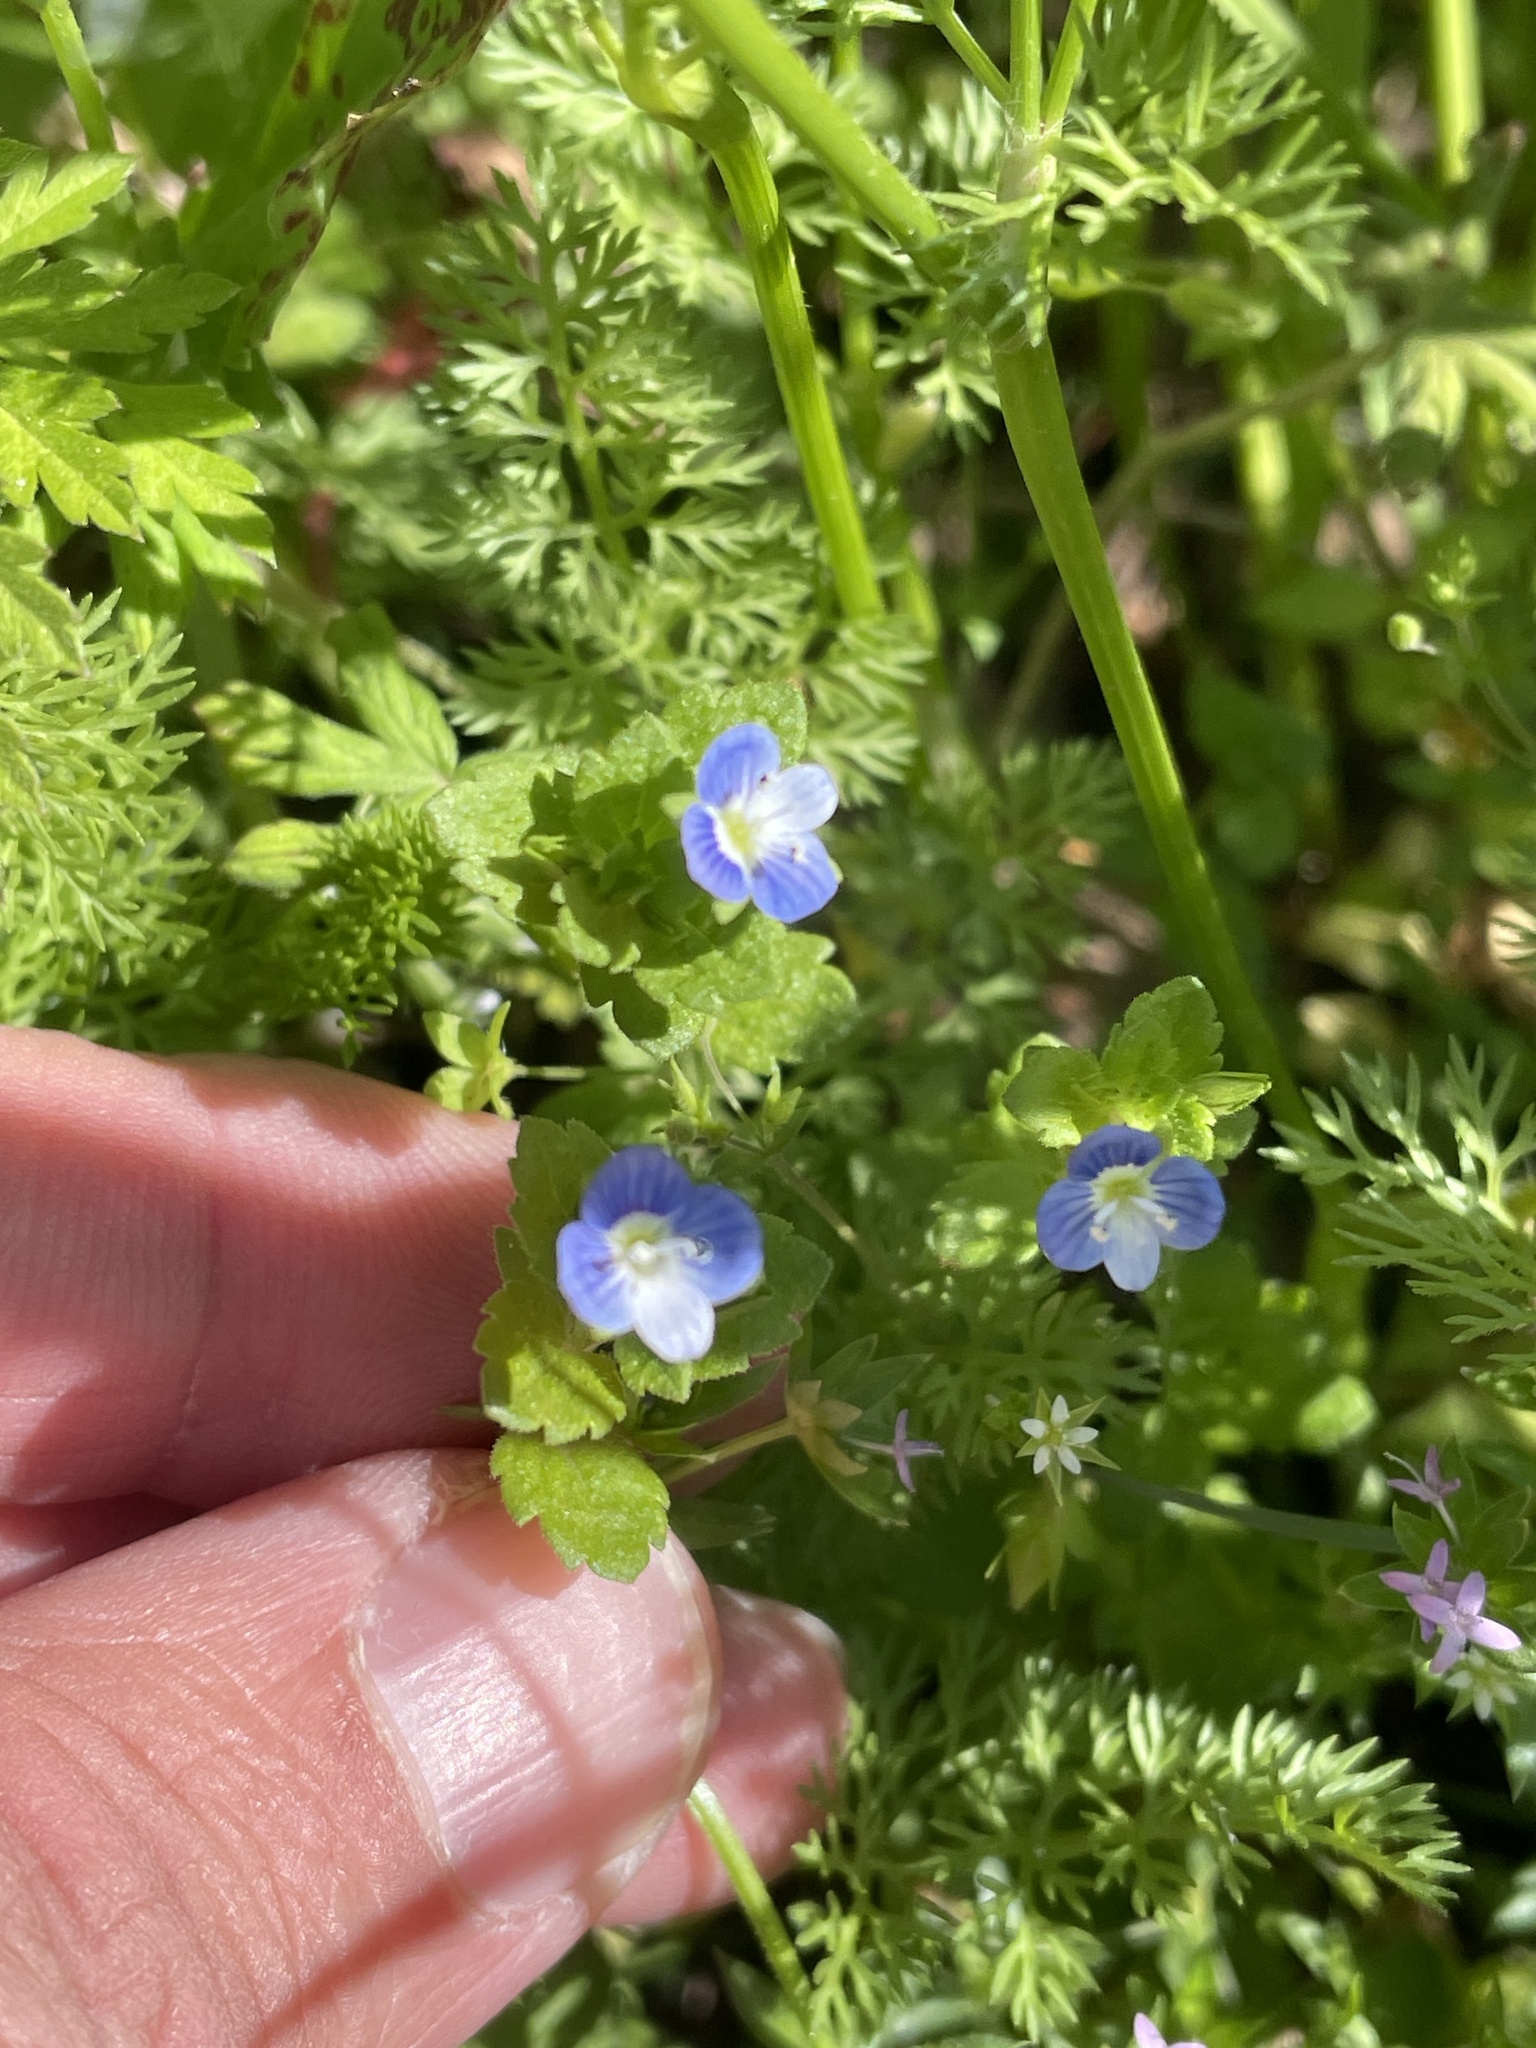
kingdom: Plantae
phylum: Tracheophyta
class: Magnoliopsida
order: Lamiales
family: Plantaginaceae
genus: Veronica
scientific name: Veronica persica
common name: Common field-speedwell
